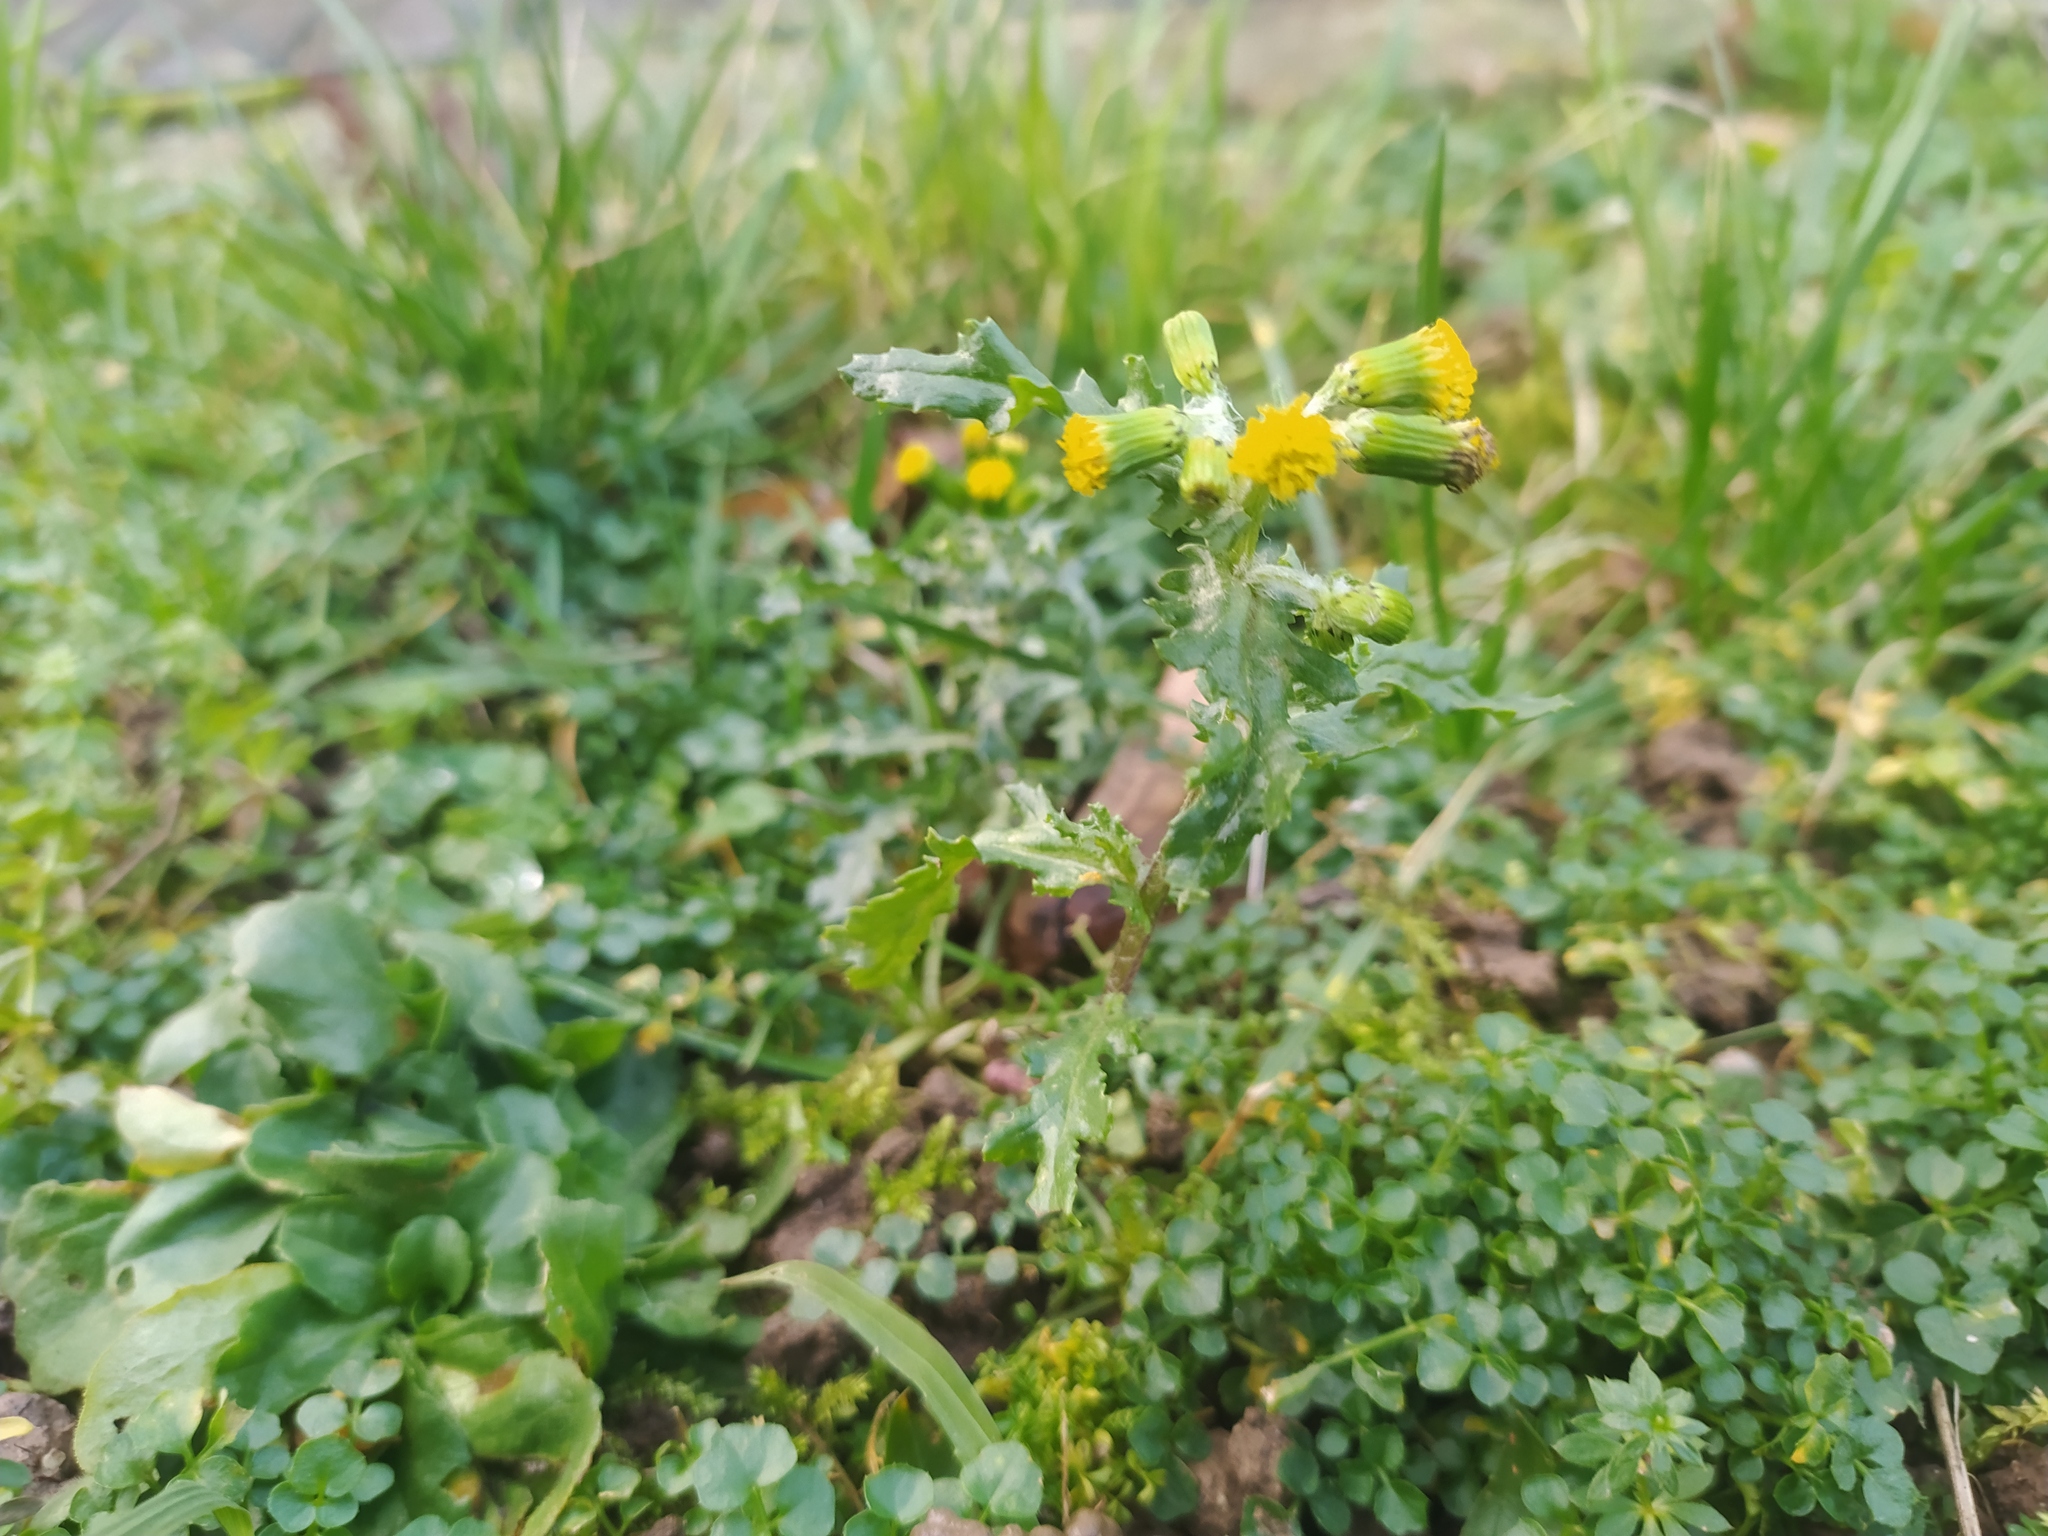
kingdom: Plantae
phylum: Tracheophyta
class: Magnoliopsida
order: Asterales
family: Asteraceae
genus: Senecio
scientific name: Senecio vulgaris
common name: Old-man-in-the-spring
